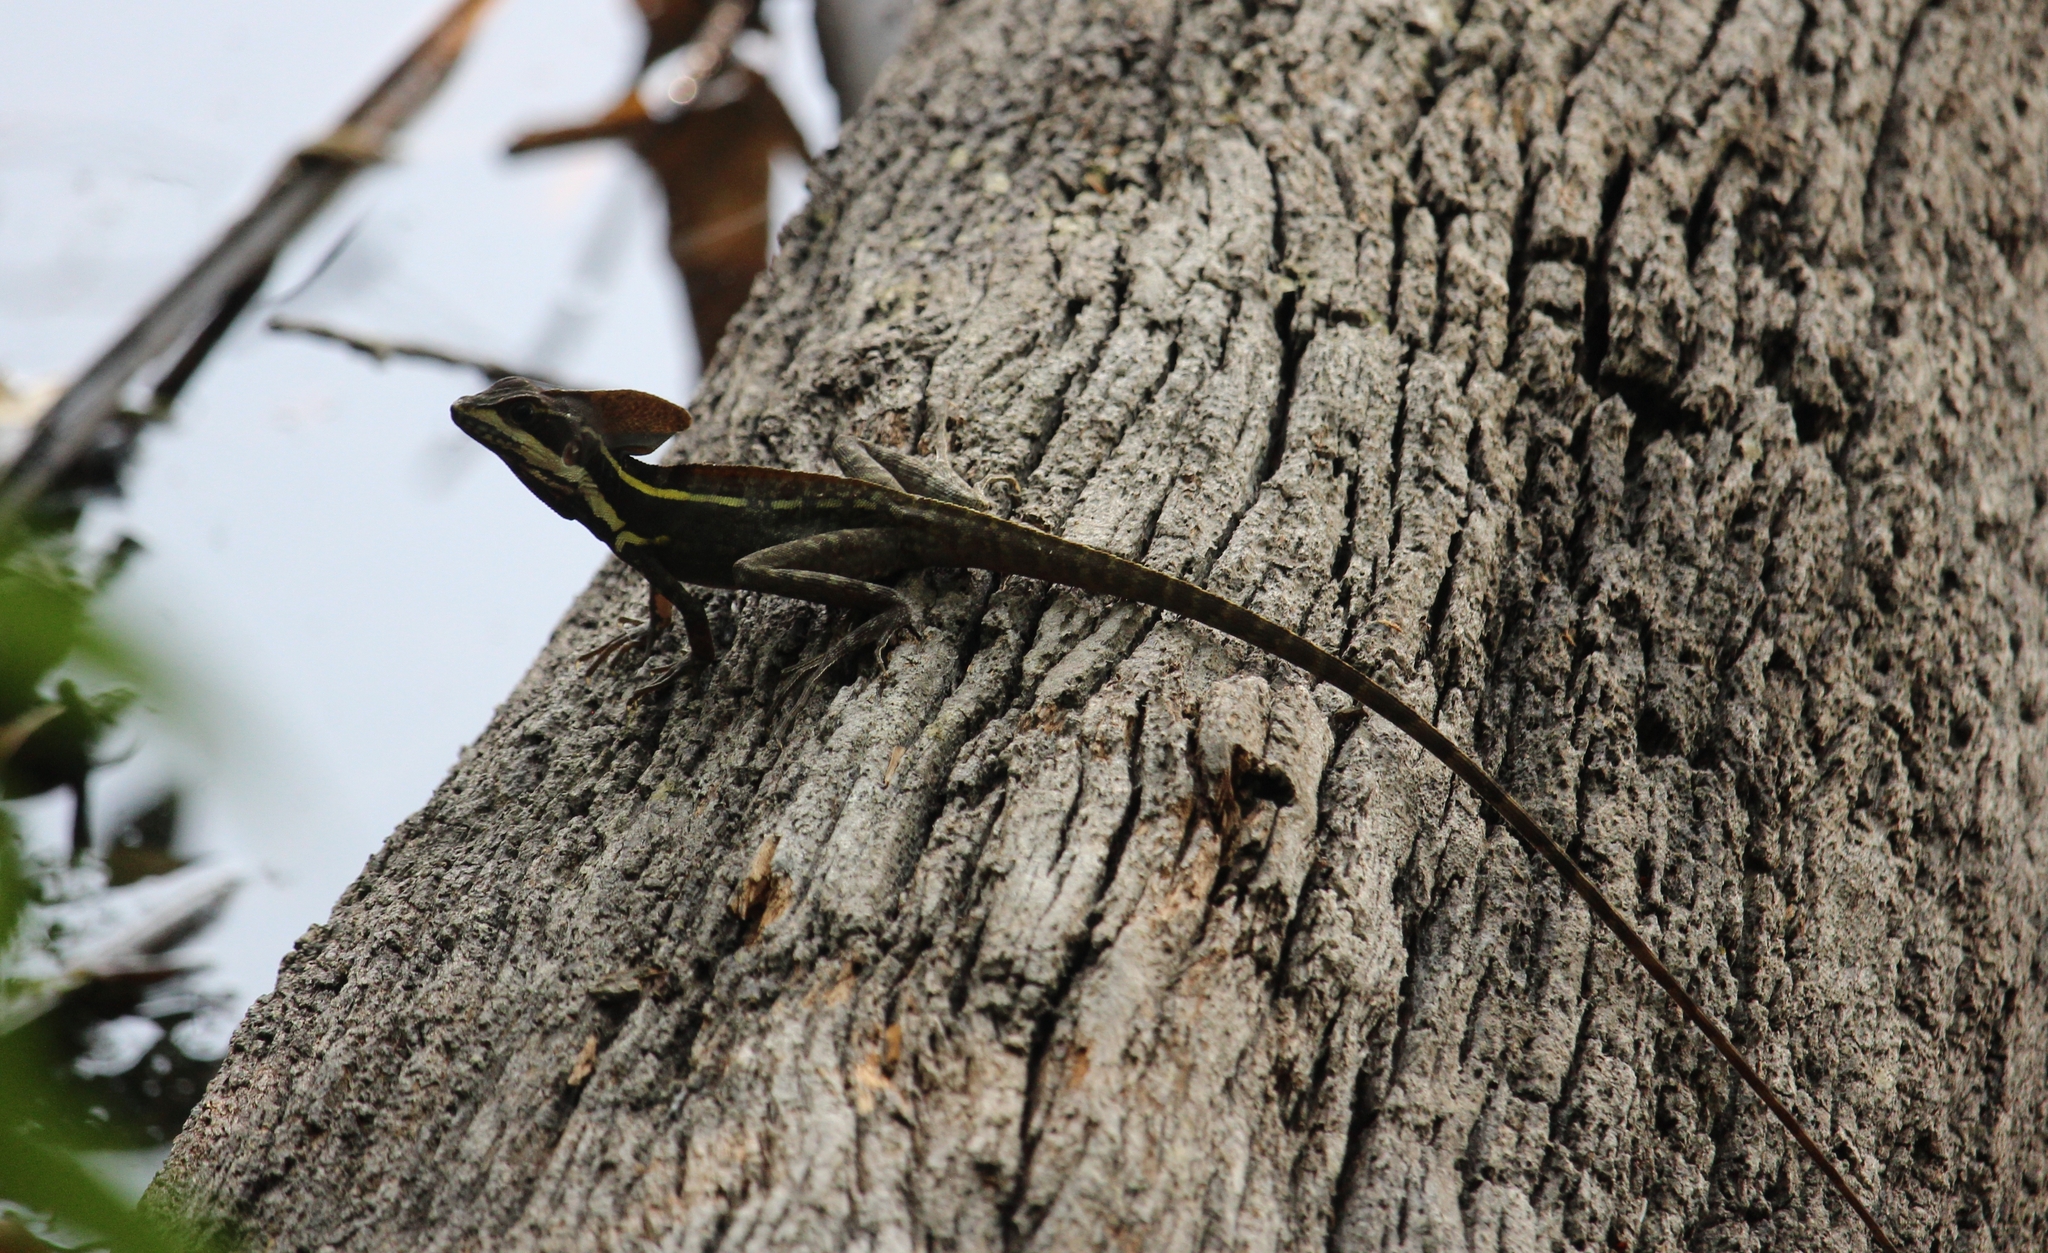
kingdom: Animalia
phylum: Chordata
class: Squamata
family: Corytophanidae
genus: Basiliscus
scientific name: Basiliscus vittatus
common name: Brown basilisk
